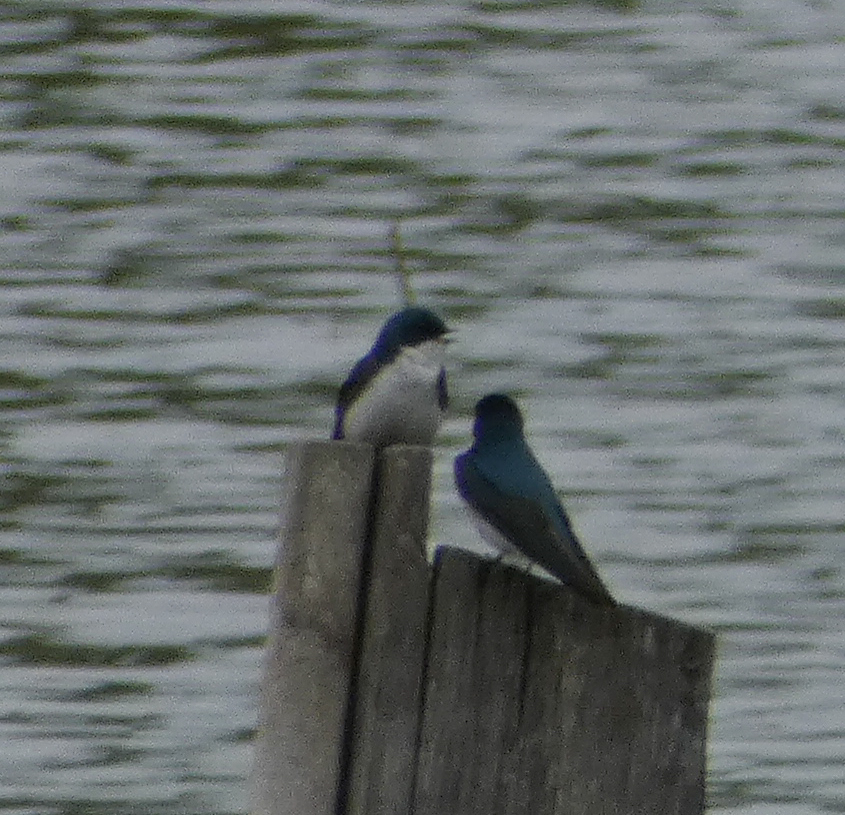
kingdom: Animalia
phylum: Chordata
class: Aves
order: Passeriformes
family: Hirundinidae
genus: Tachycineta
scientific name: Tachycineta bicolor
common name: Tree swallow
